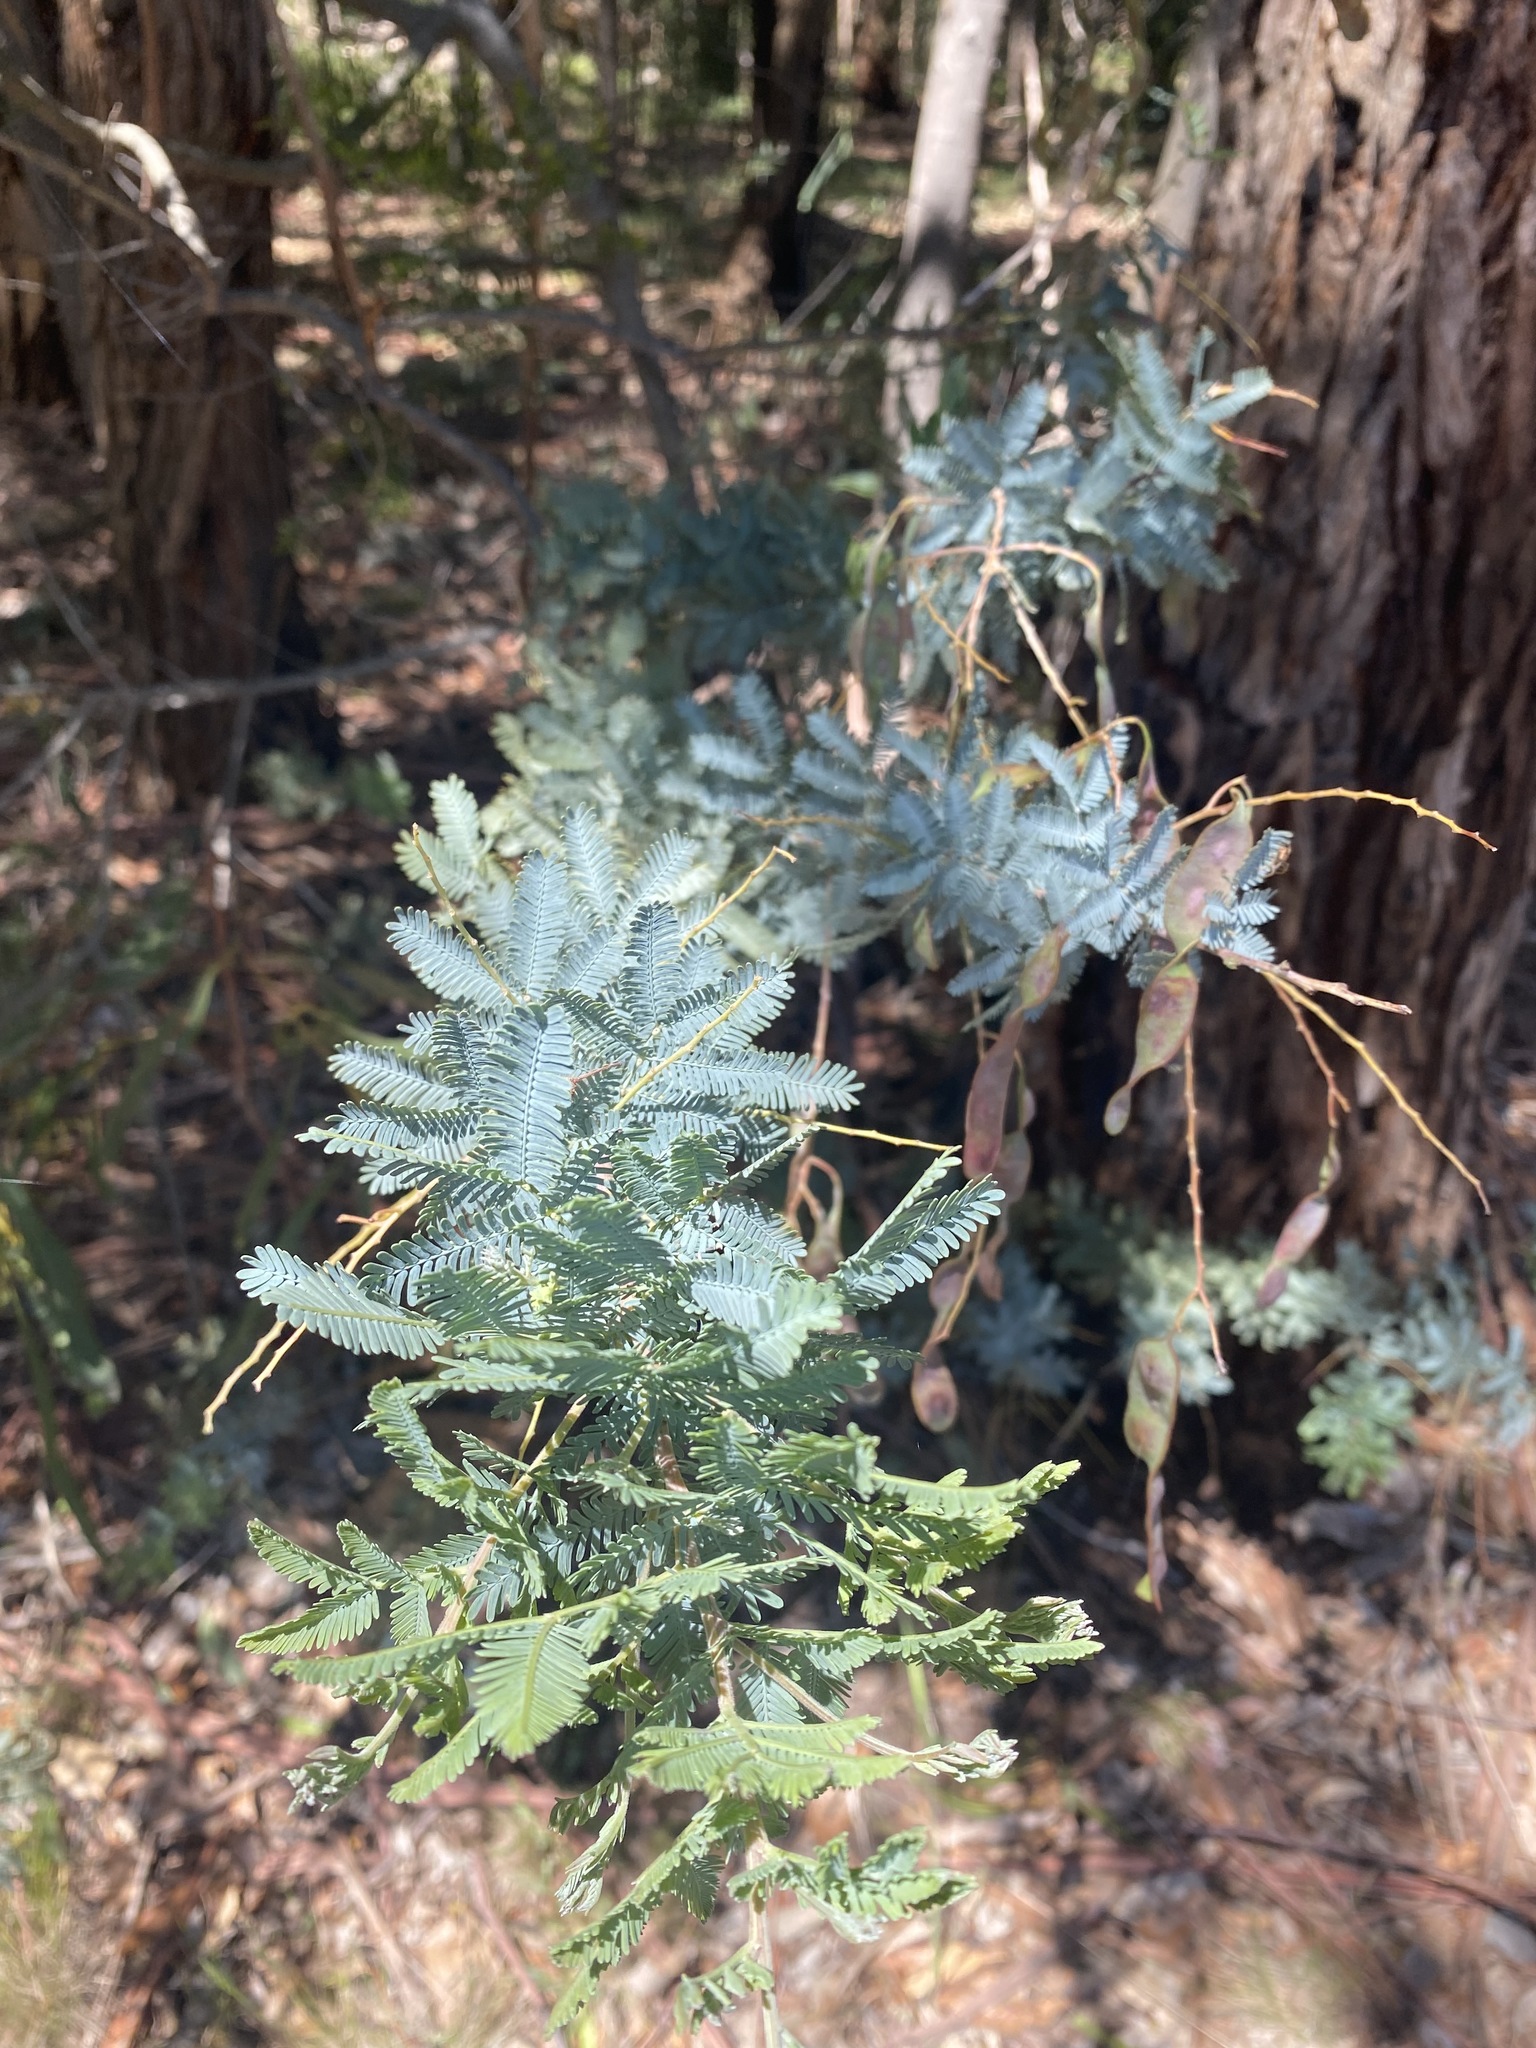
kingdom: Plantae
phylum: Tracheophyta
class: Magnoliopsida
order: Fabales
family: Fabaceae
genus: Acacia
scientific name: Acacia baileyana
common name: Cootamundra wattle
